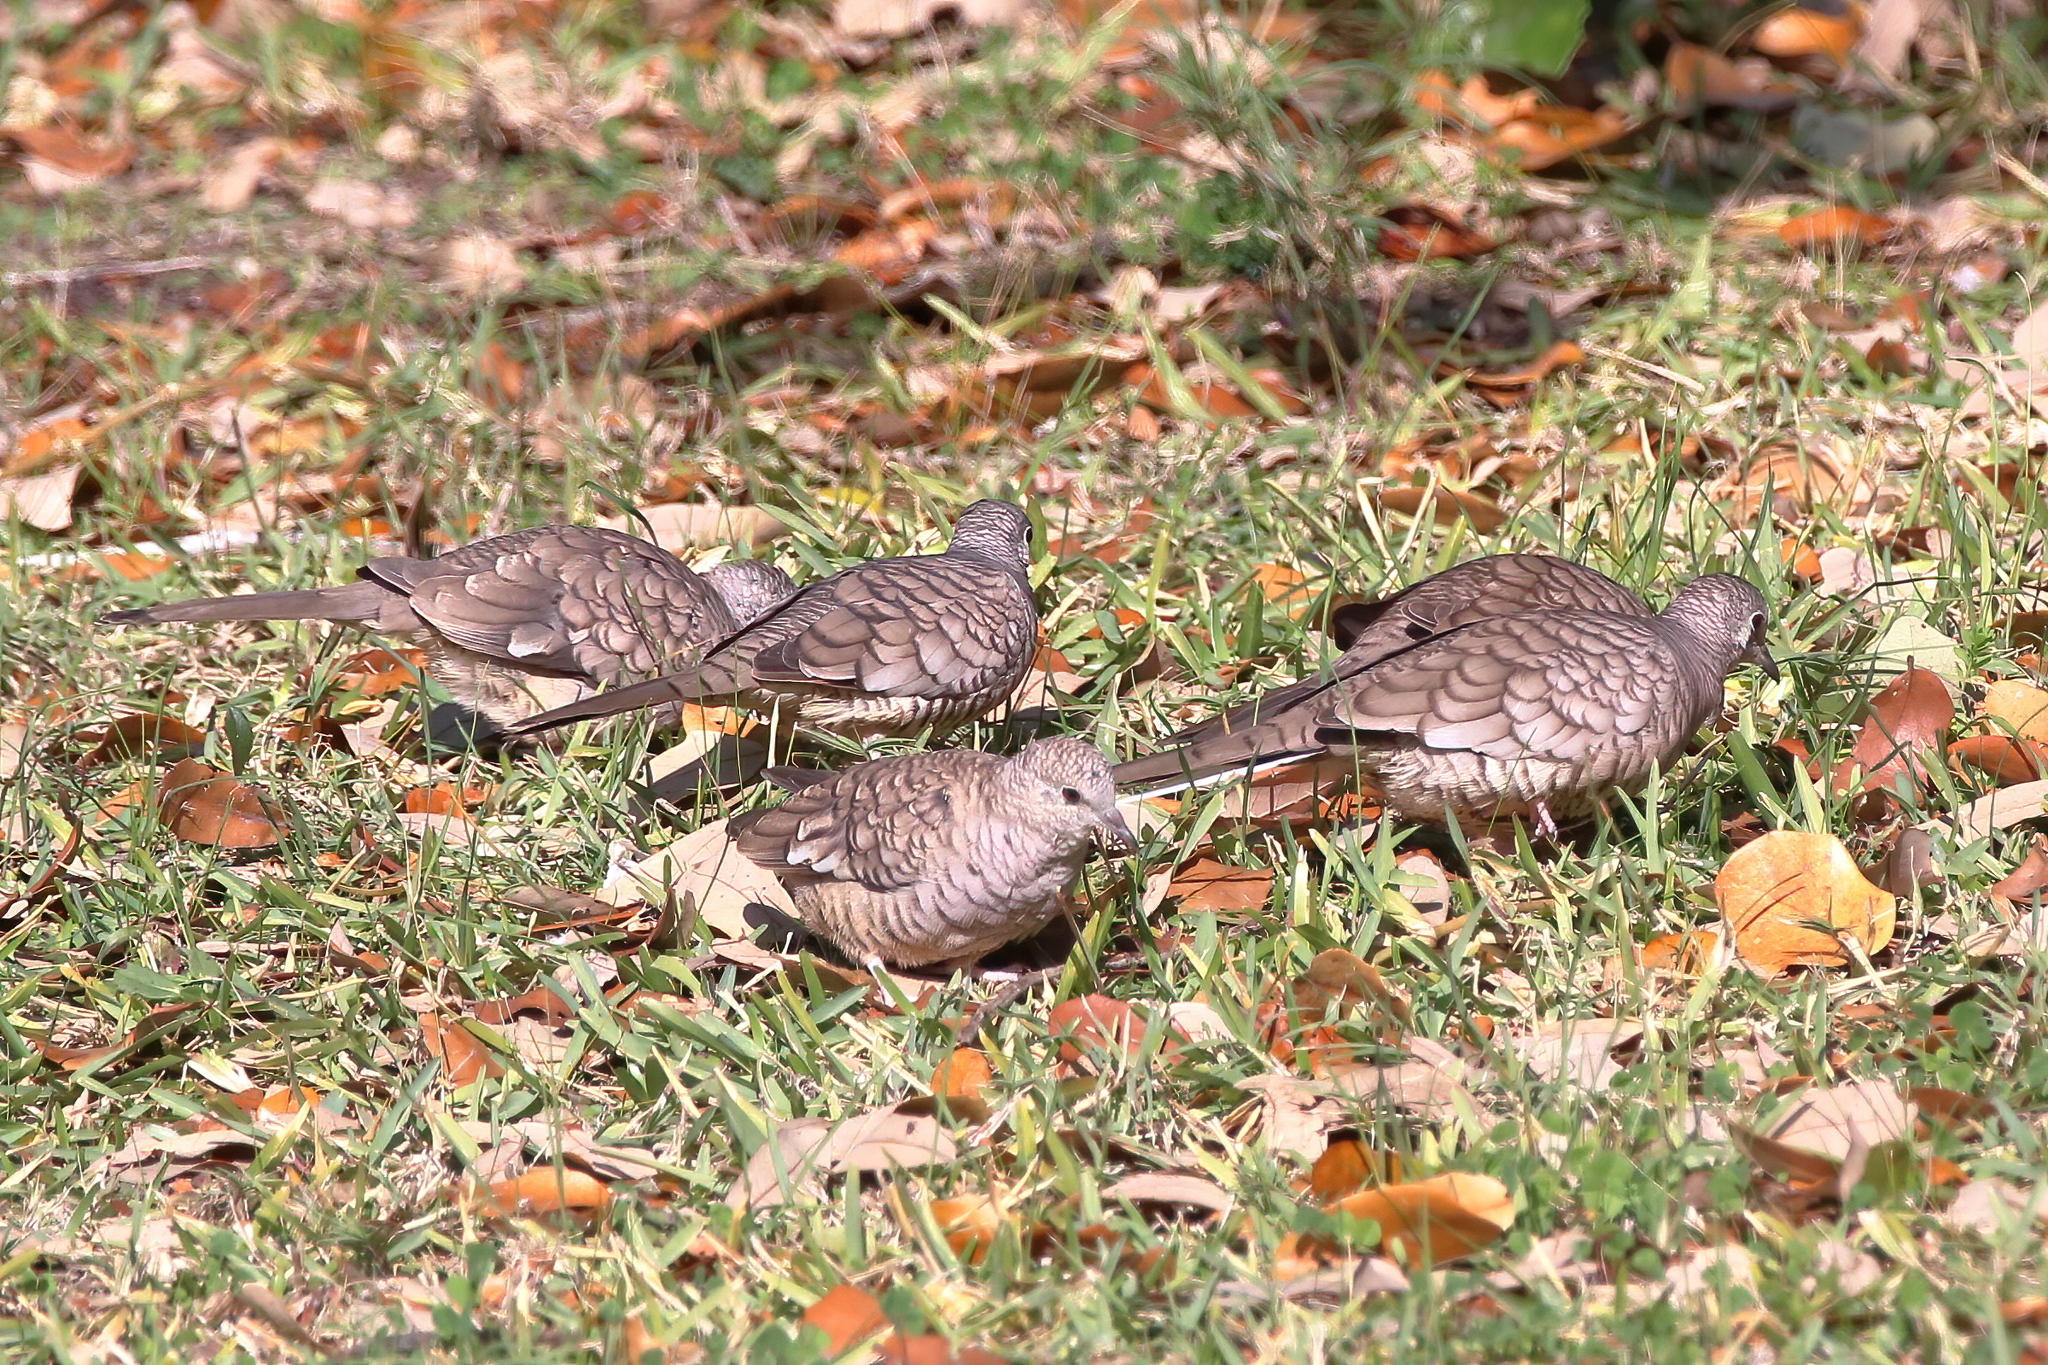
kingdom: Animalia
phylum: Chordata
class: Aves
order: Columbiformes
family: Columbidae
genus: Columbina
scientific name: Columbina inca
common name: Inca dove
